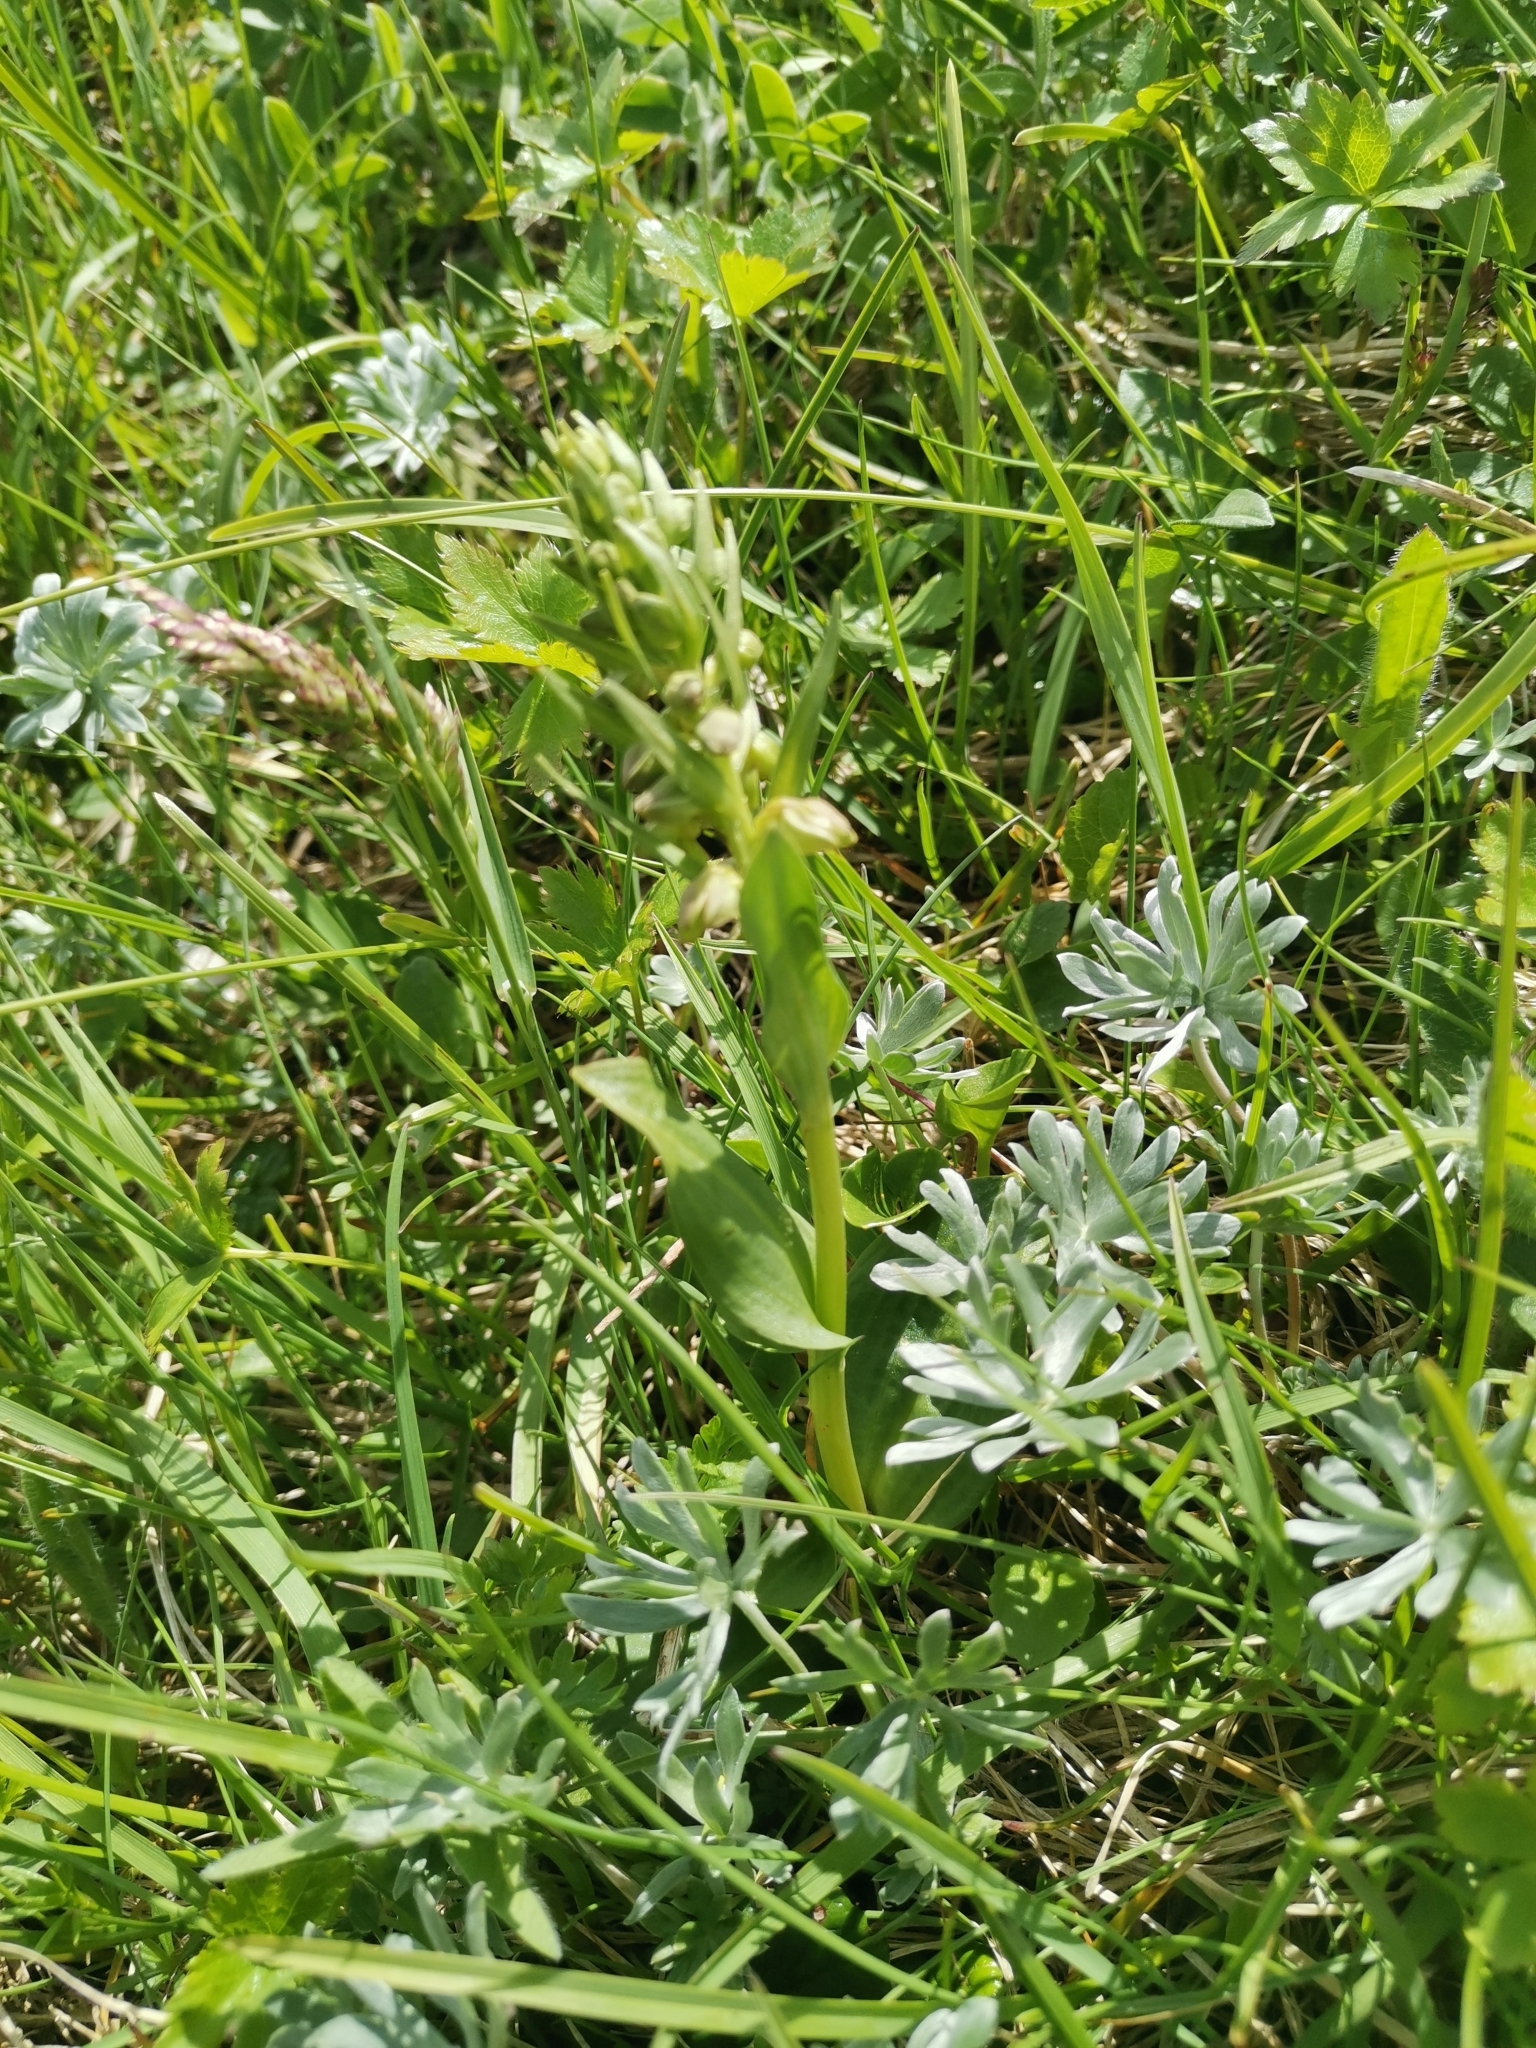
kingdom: Plantae
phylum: Tracheophyta
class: Liliopsida
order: Asparagales
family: Orchidaceae
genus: Dactylorhiza
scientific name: Dactylorhiza viridis
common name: Longbract frog orchid
